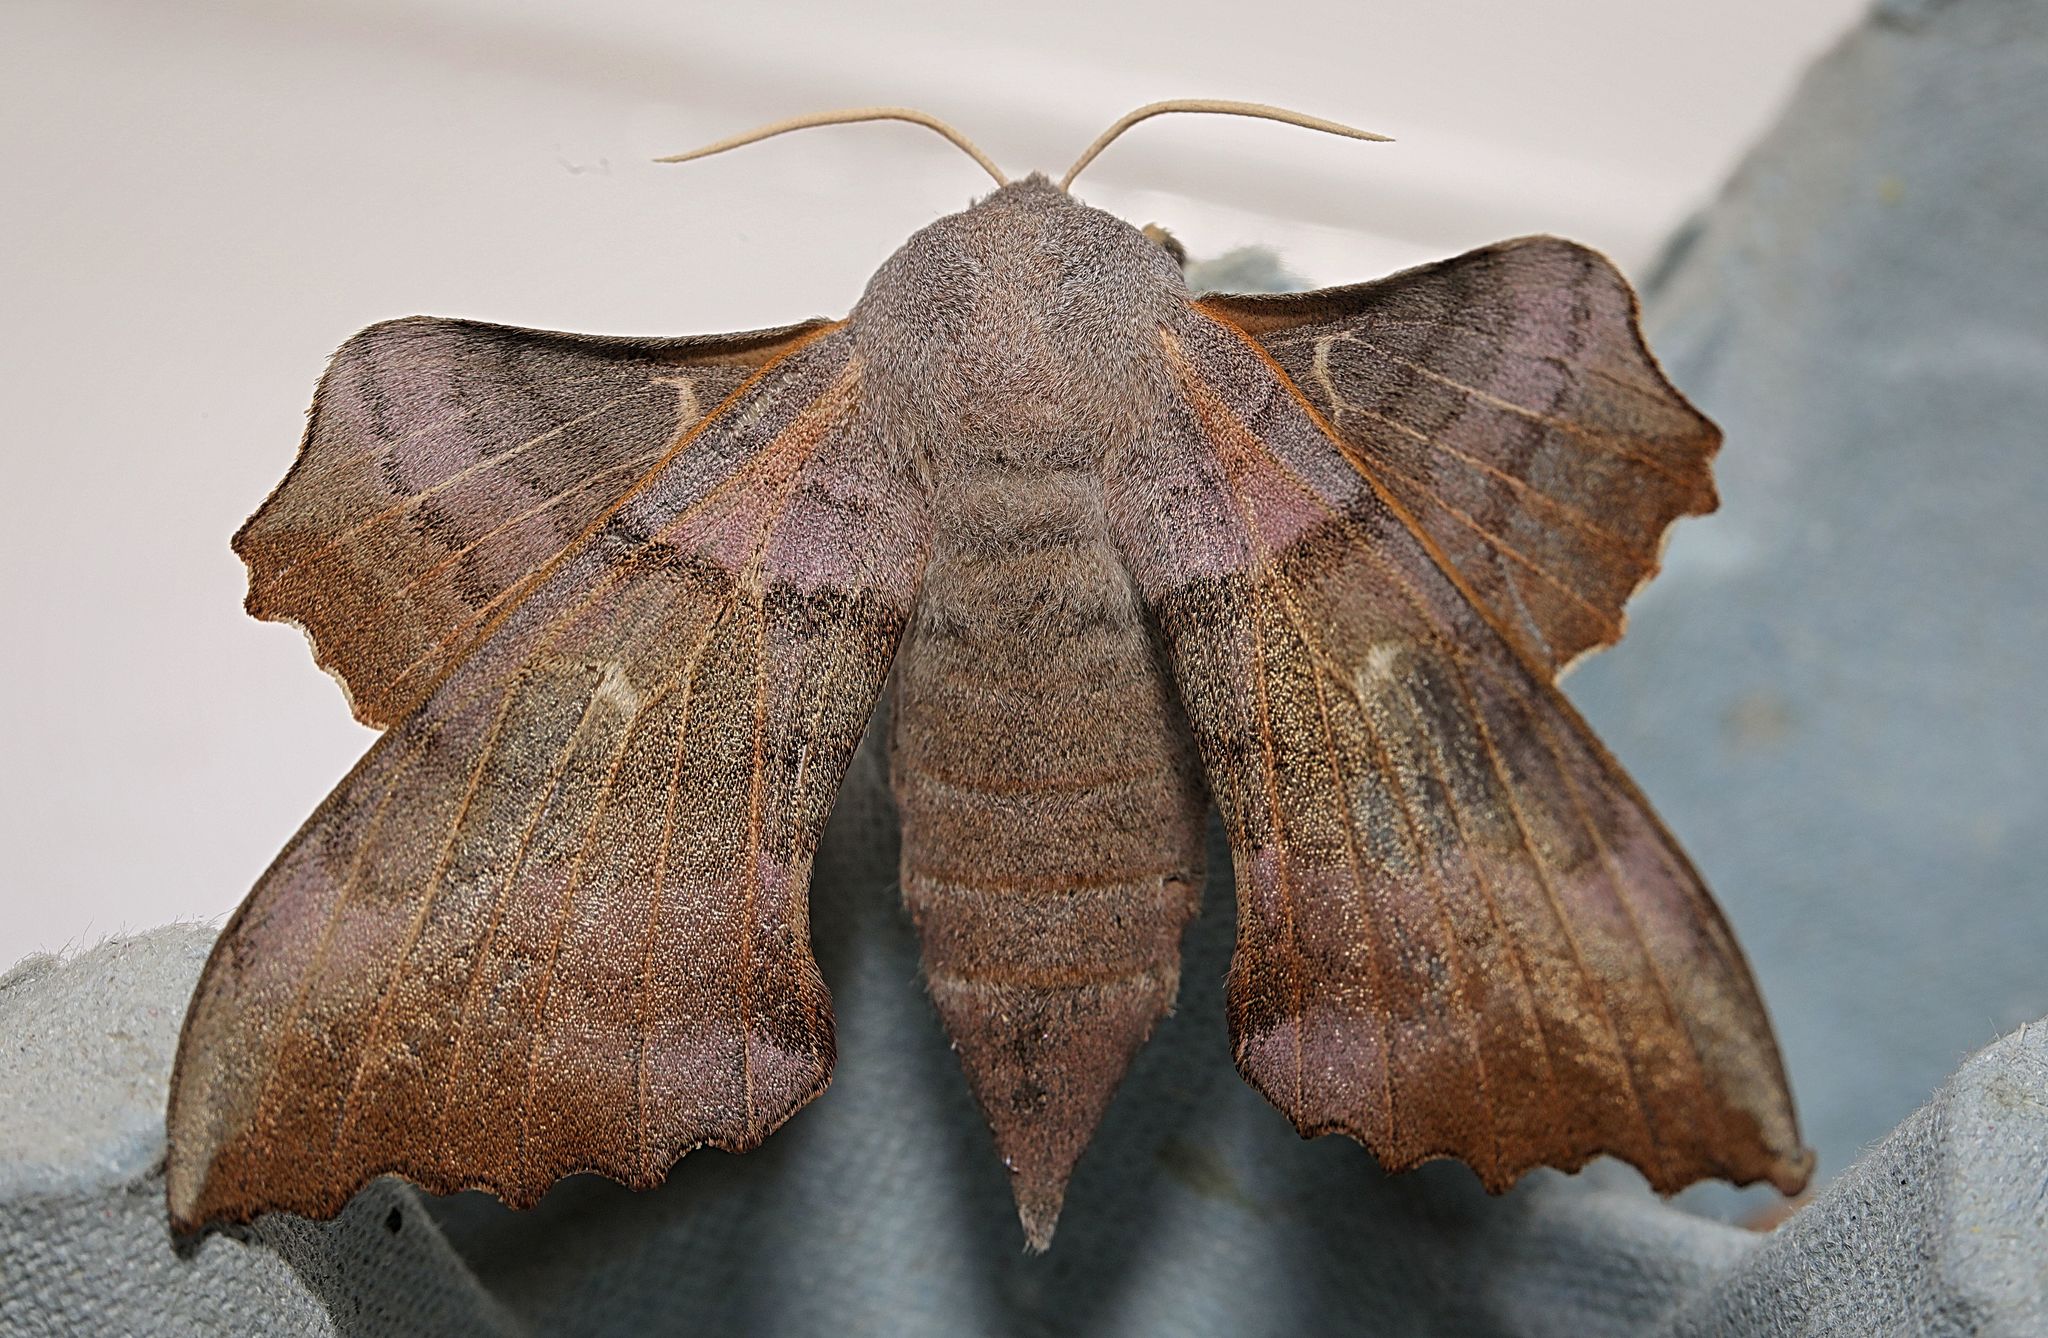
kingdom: Animalia
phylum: Arthropoda
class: Insecta
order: Lepidoptera
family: Sphingidae
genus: Laothoe
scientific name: Laothoe populi
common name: Poplar hawk-moth
